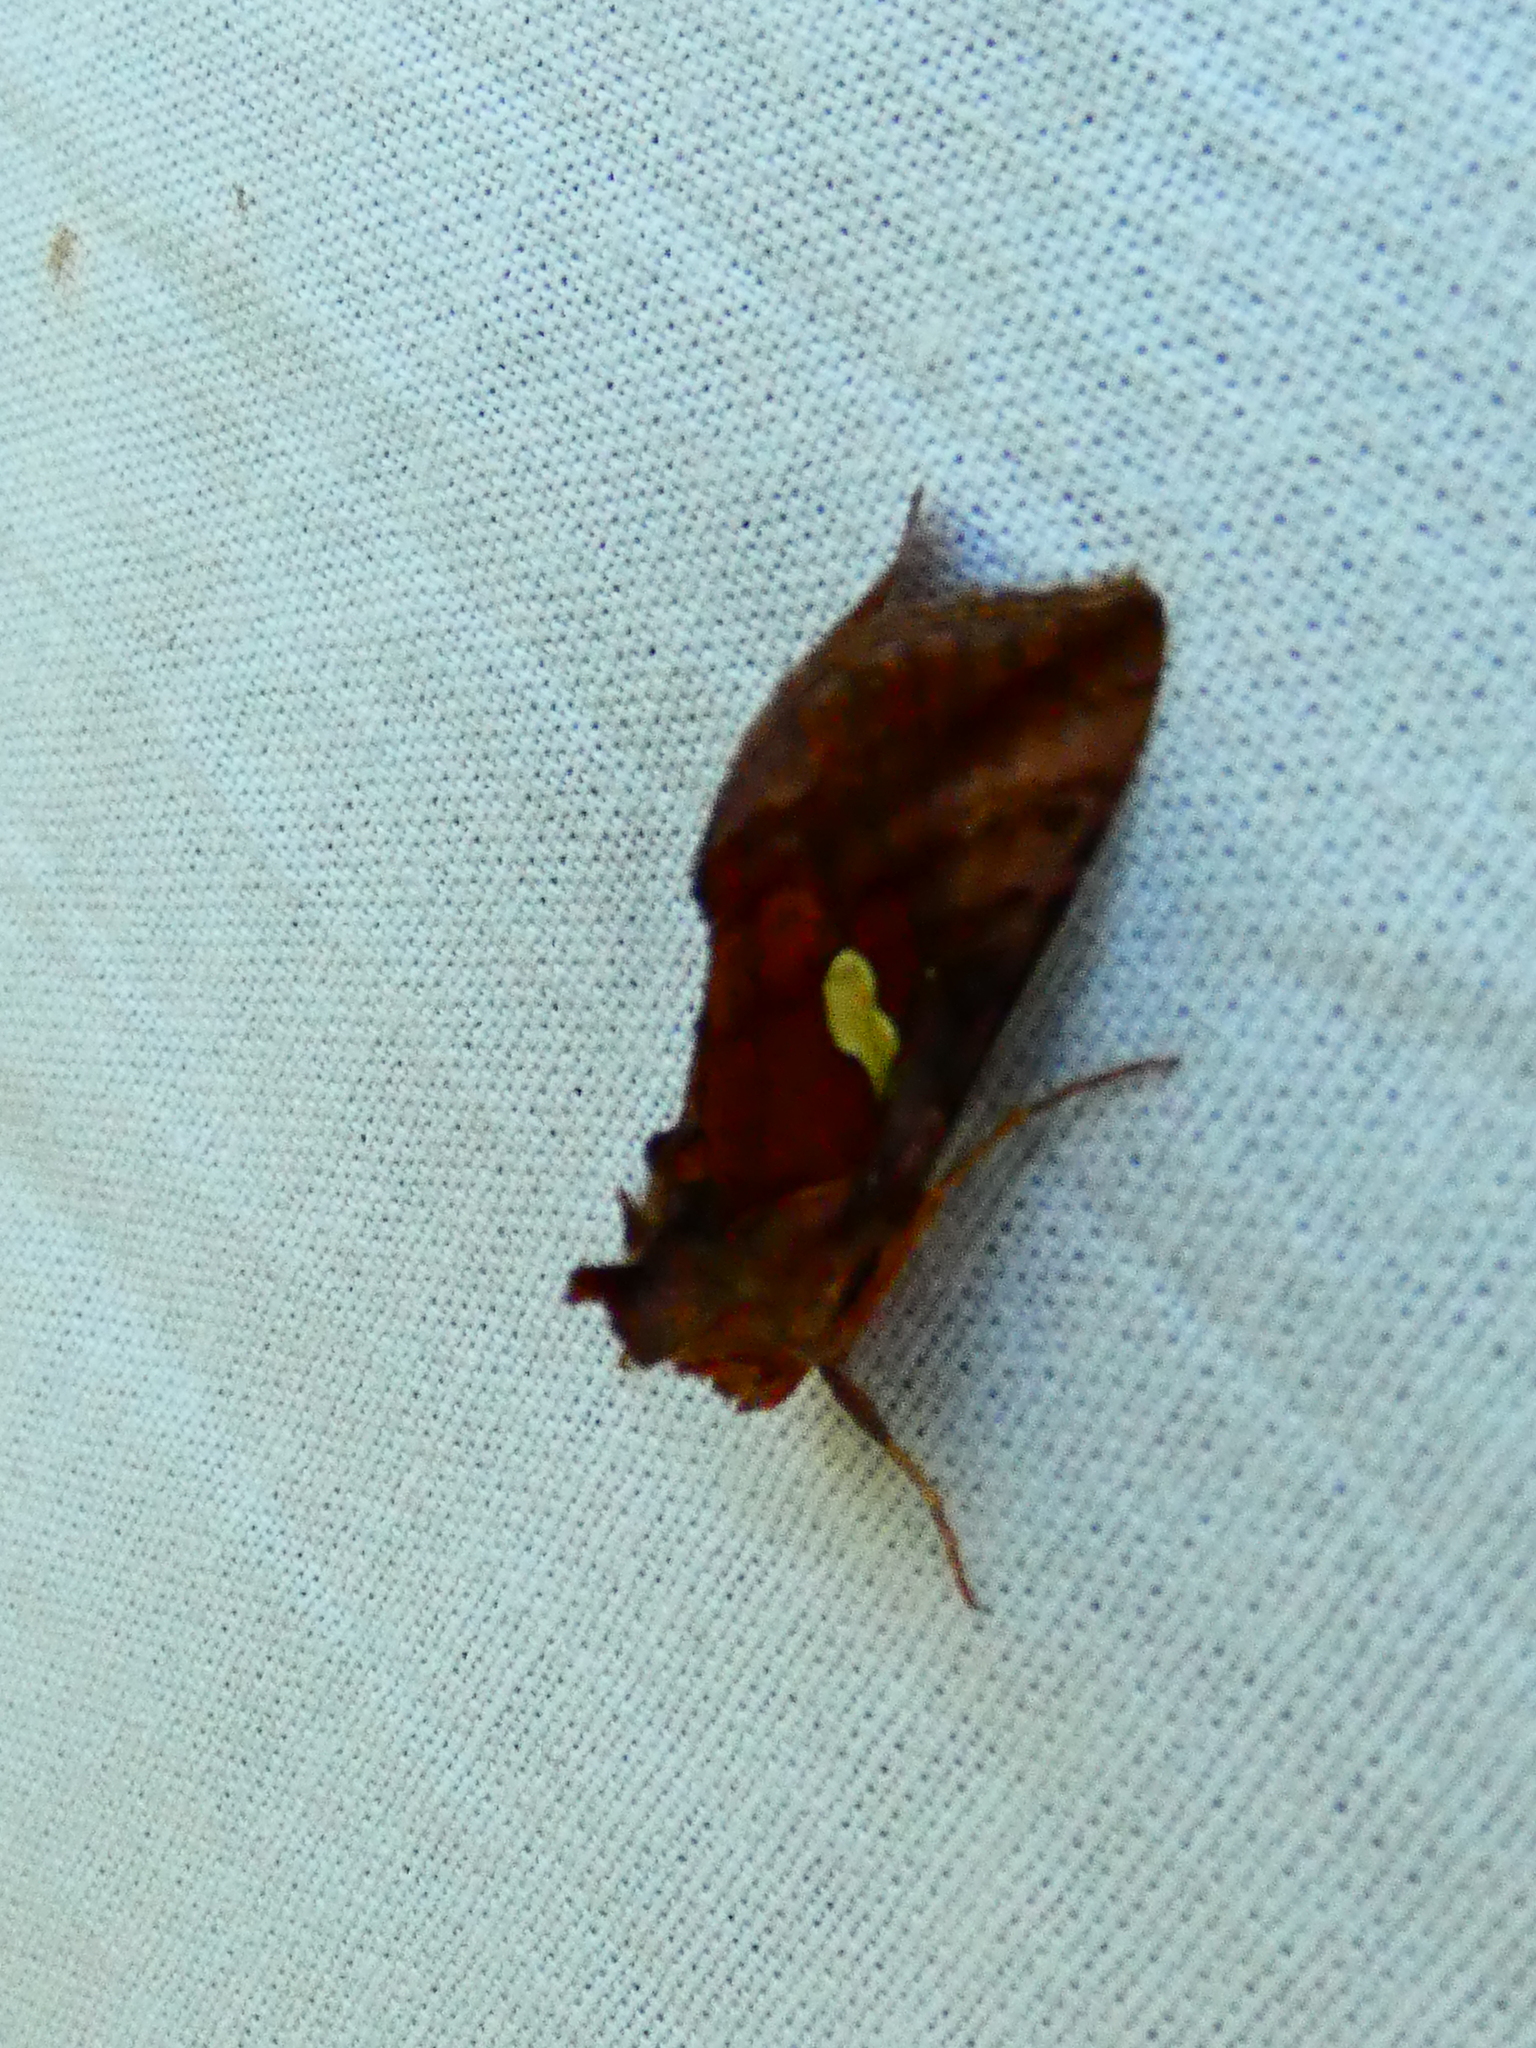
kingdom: Animalia
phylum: Arthropoda
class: Insecta
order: Lepidoptera
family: Noctuidae
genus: Autographa
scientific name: Autographa excelsa
